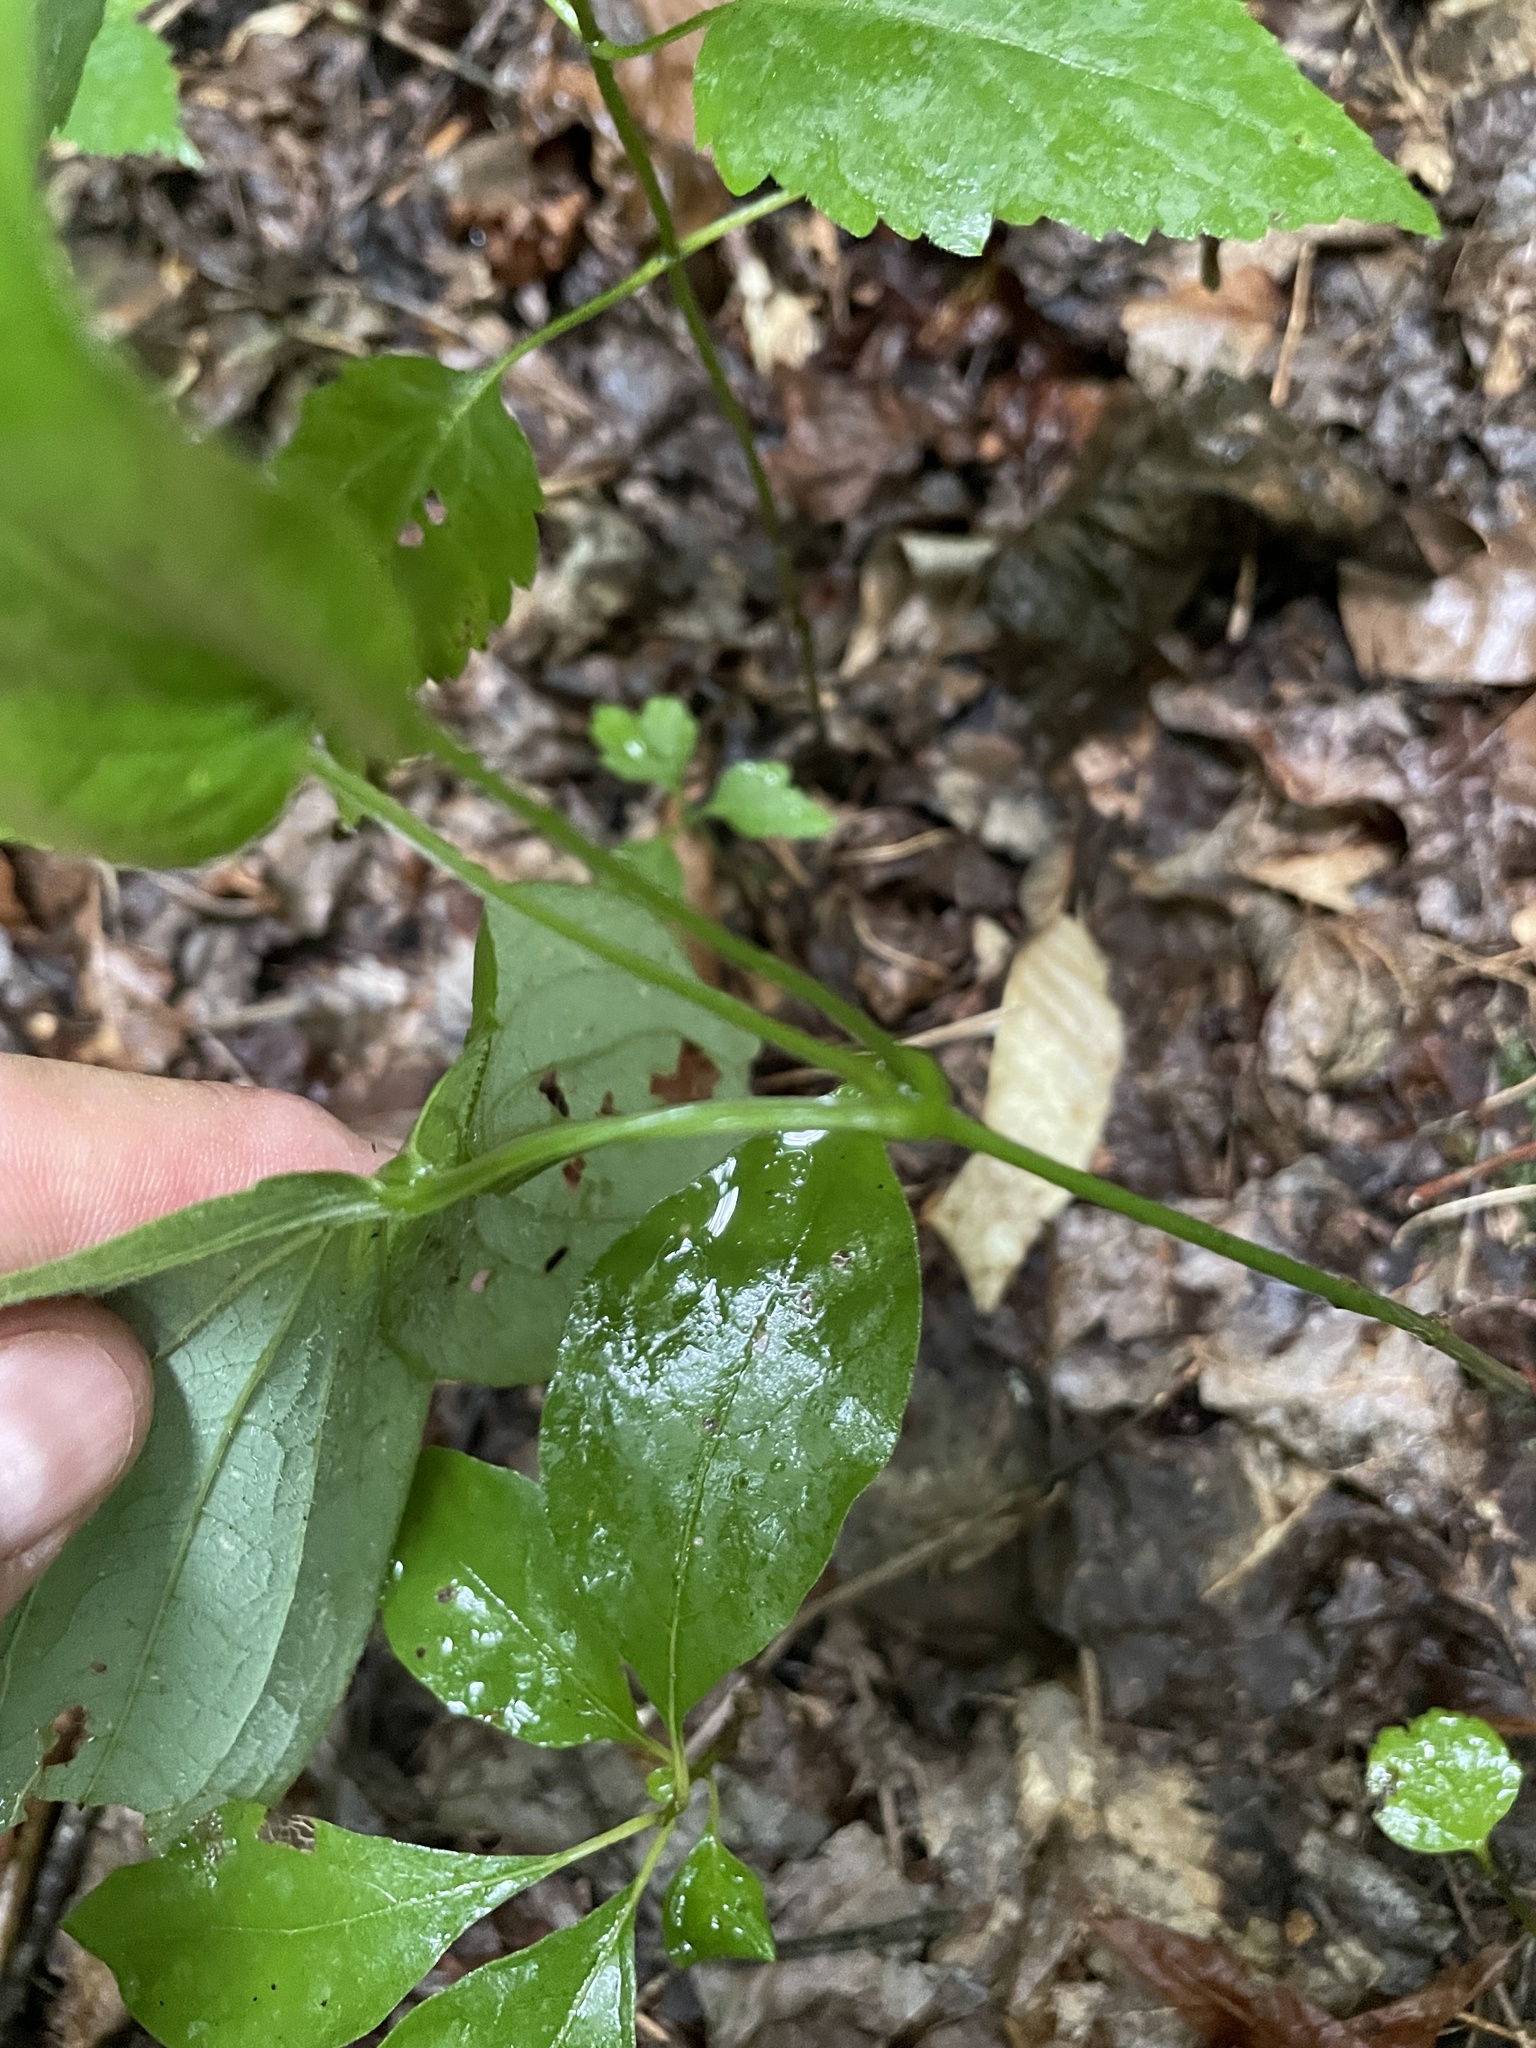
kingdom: Plantae
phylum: Tracheophyta
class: Liliopsida
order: Liliales
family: Smilacaceae
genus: Smilax
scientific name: Smilax hugeri
